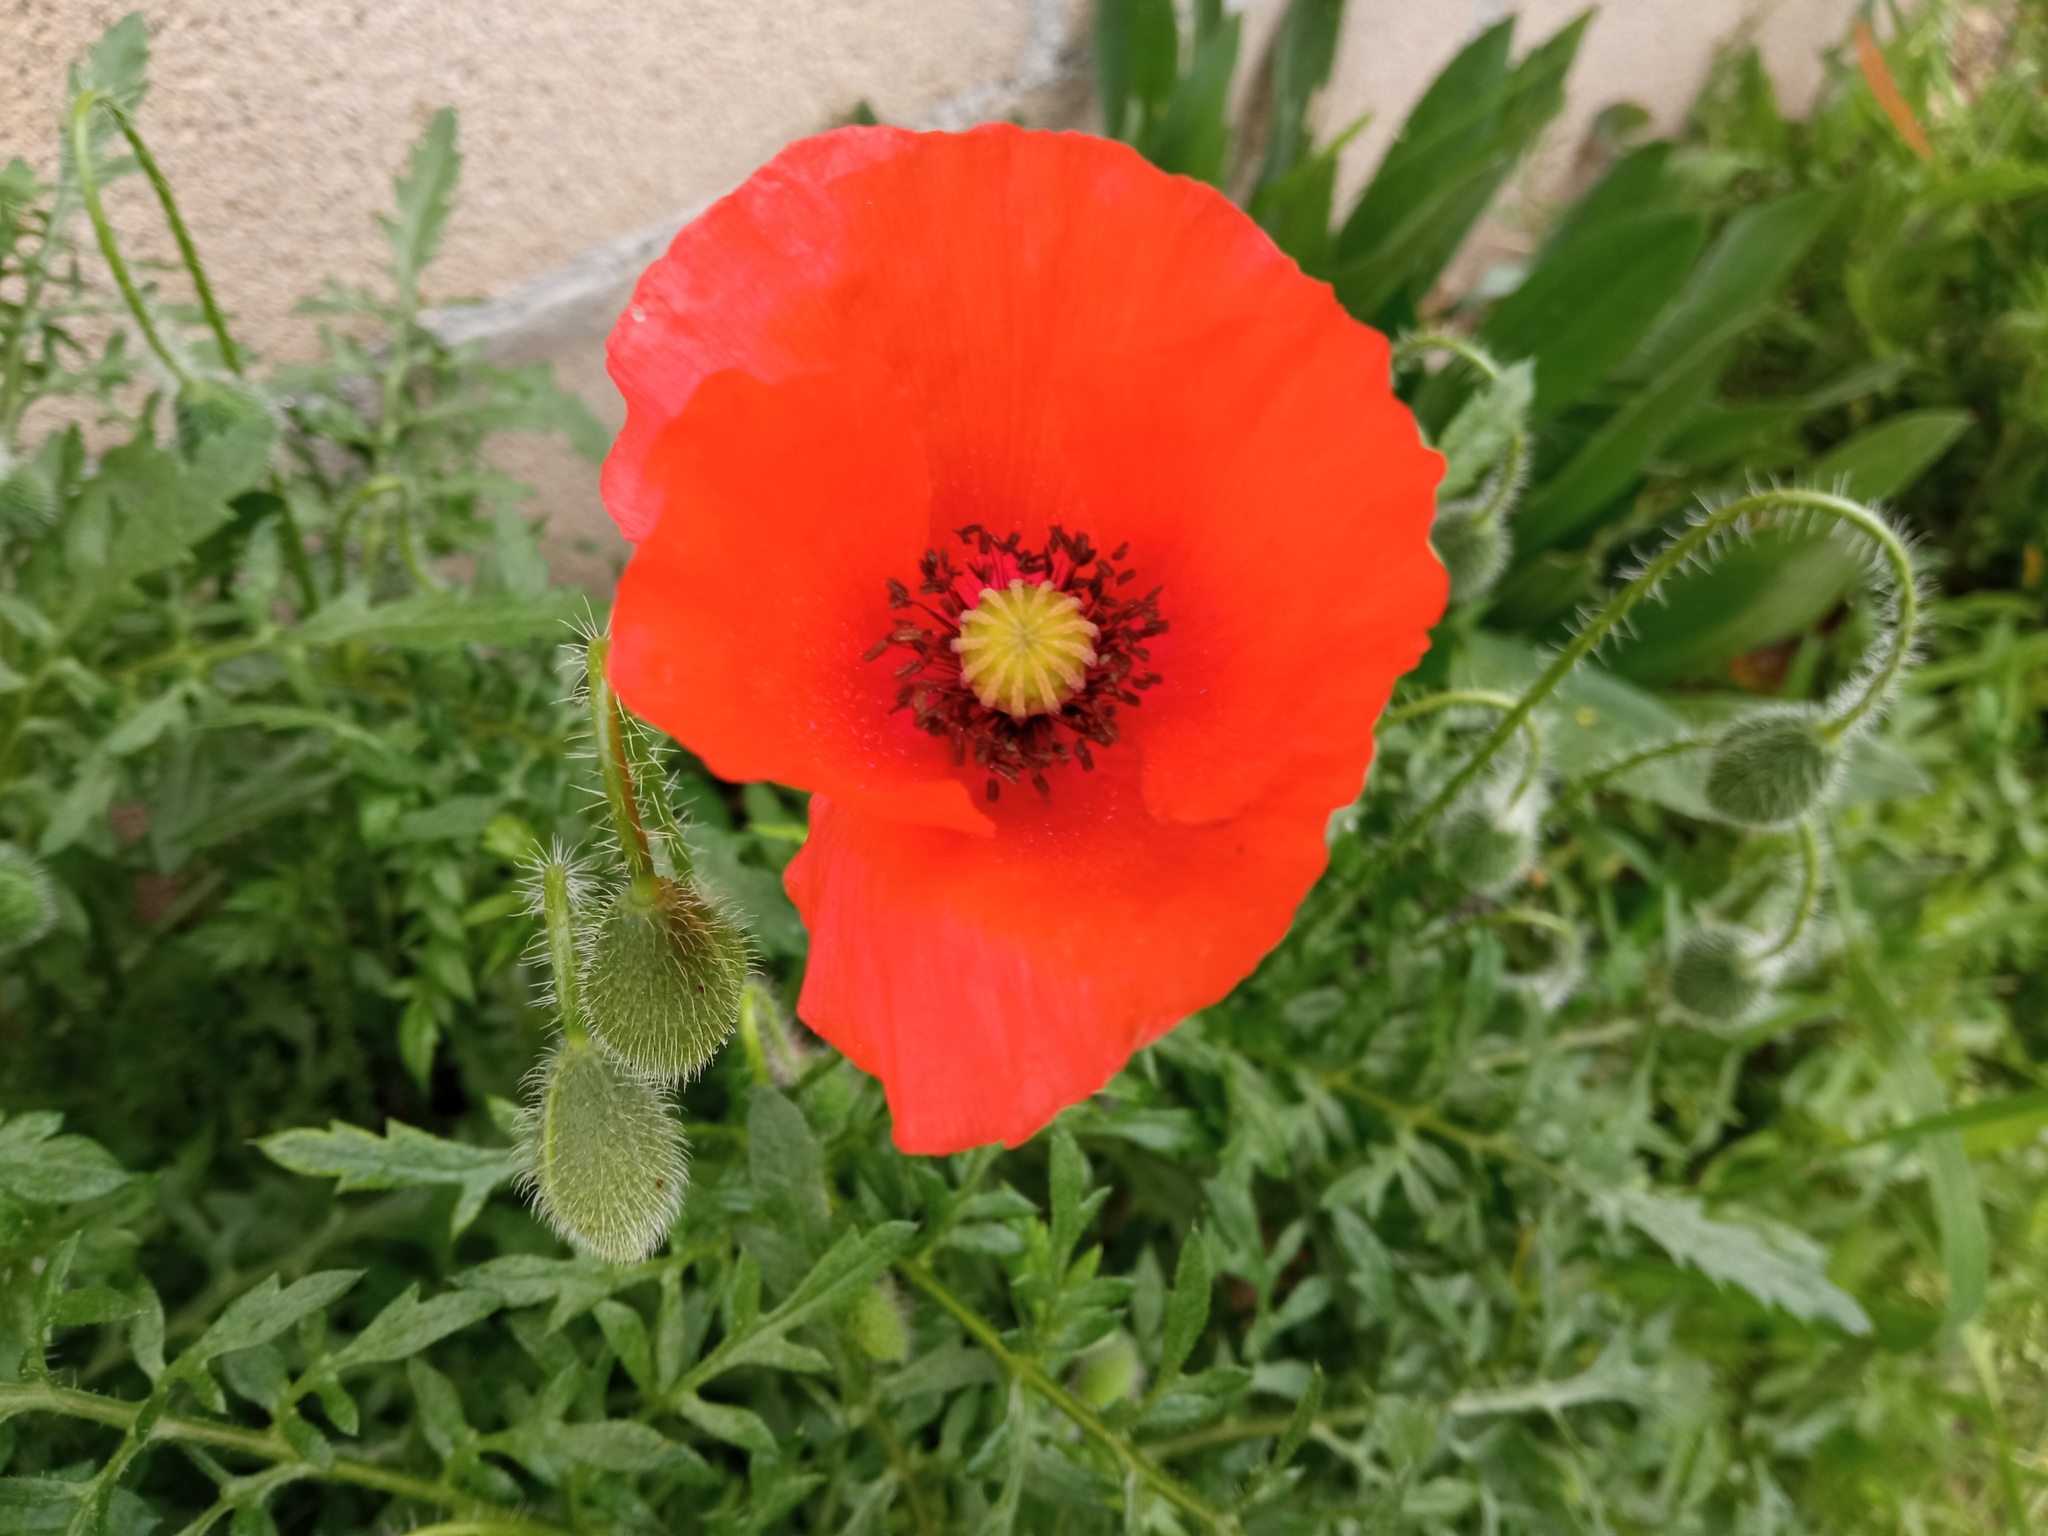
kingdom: Plantae
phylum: Tracheophyta
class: Magnoliopsida
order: Ranunculales
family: Papaveraceae
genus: Papaver
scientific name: Papaver rhoeas
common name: Corn poppy
